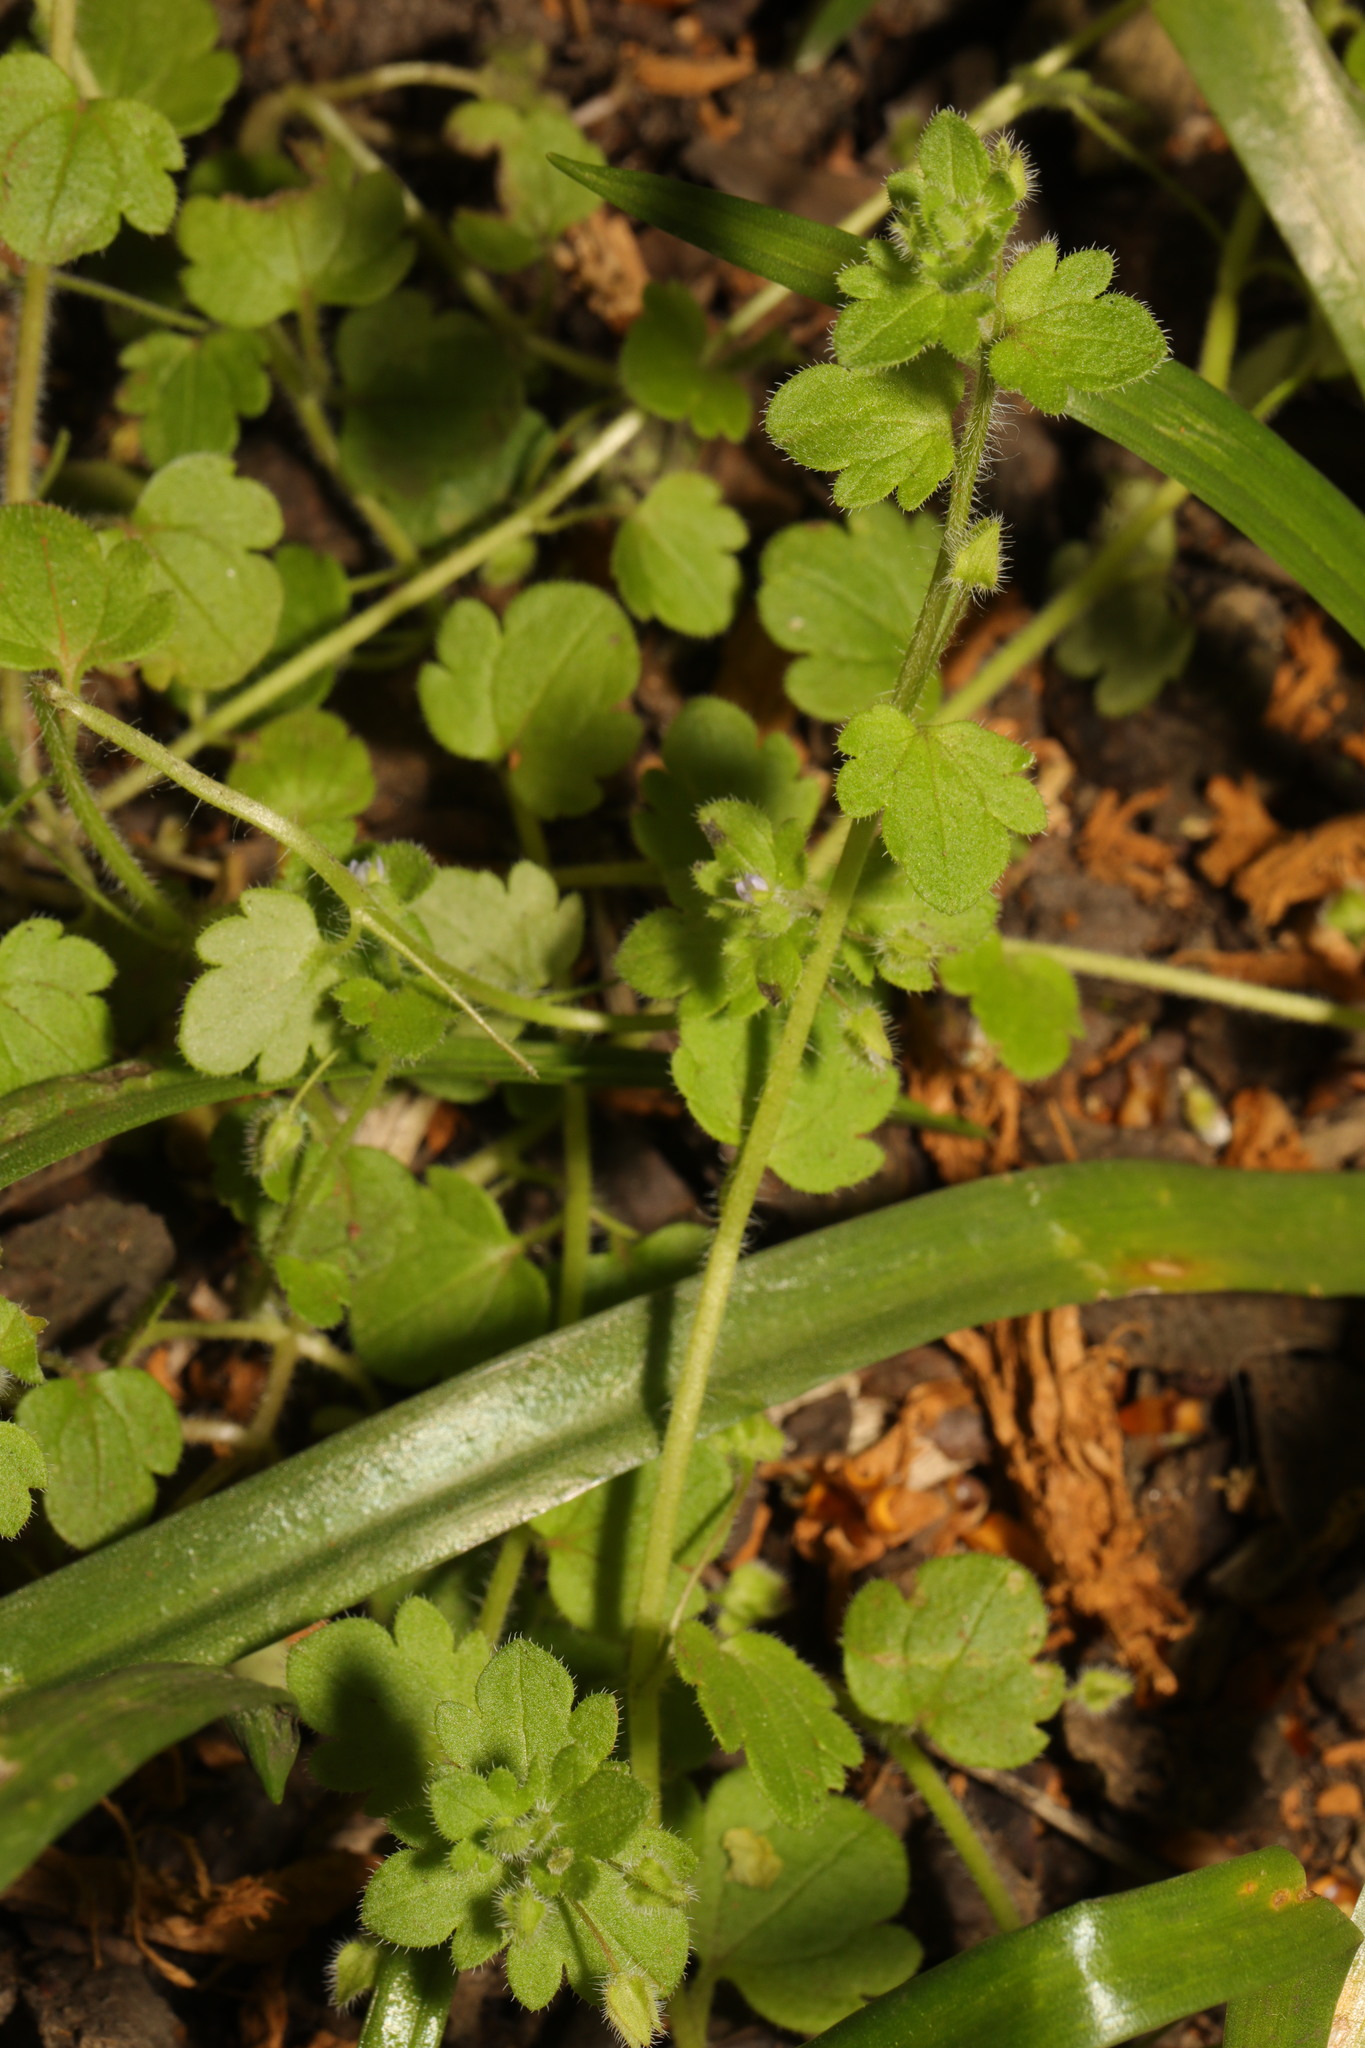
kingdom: Plantae
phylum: Tracheophyta
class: Magnoliopsida
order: Lamiales
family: Plantaginaceae
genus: Veronica
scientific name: Veronica hederifolia
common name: Ivy-leaved speedwell
